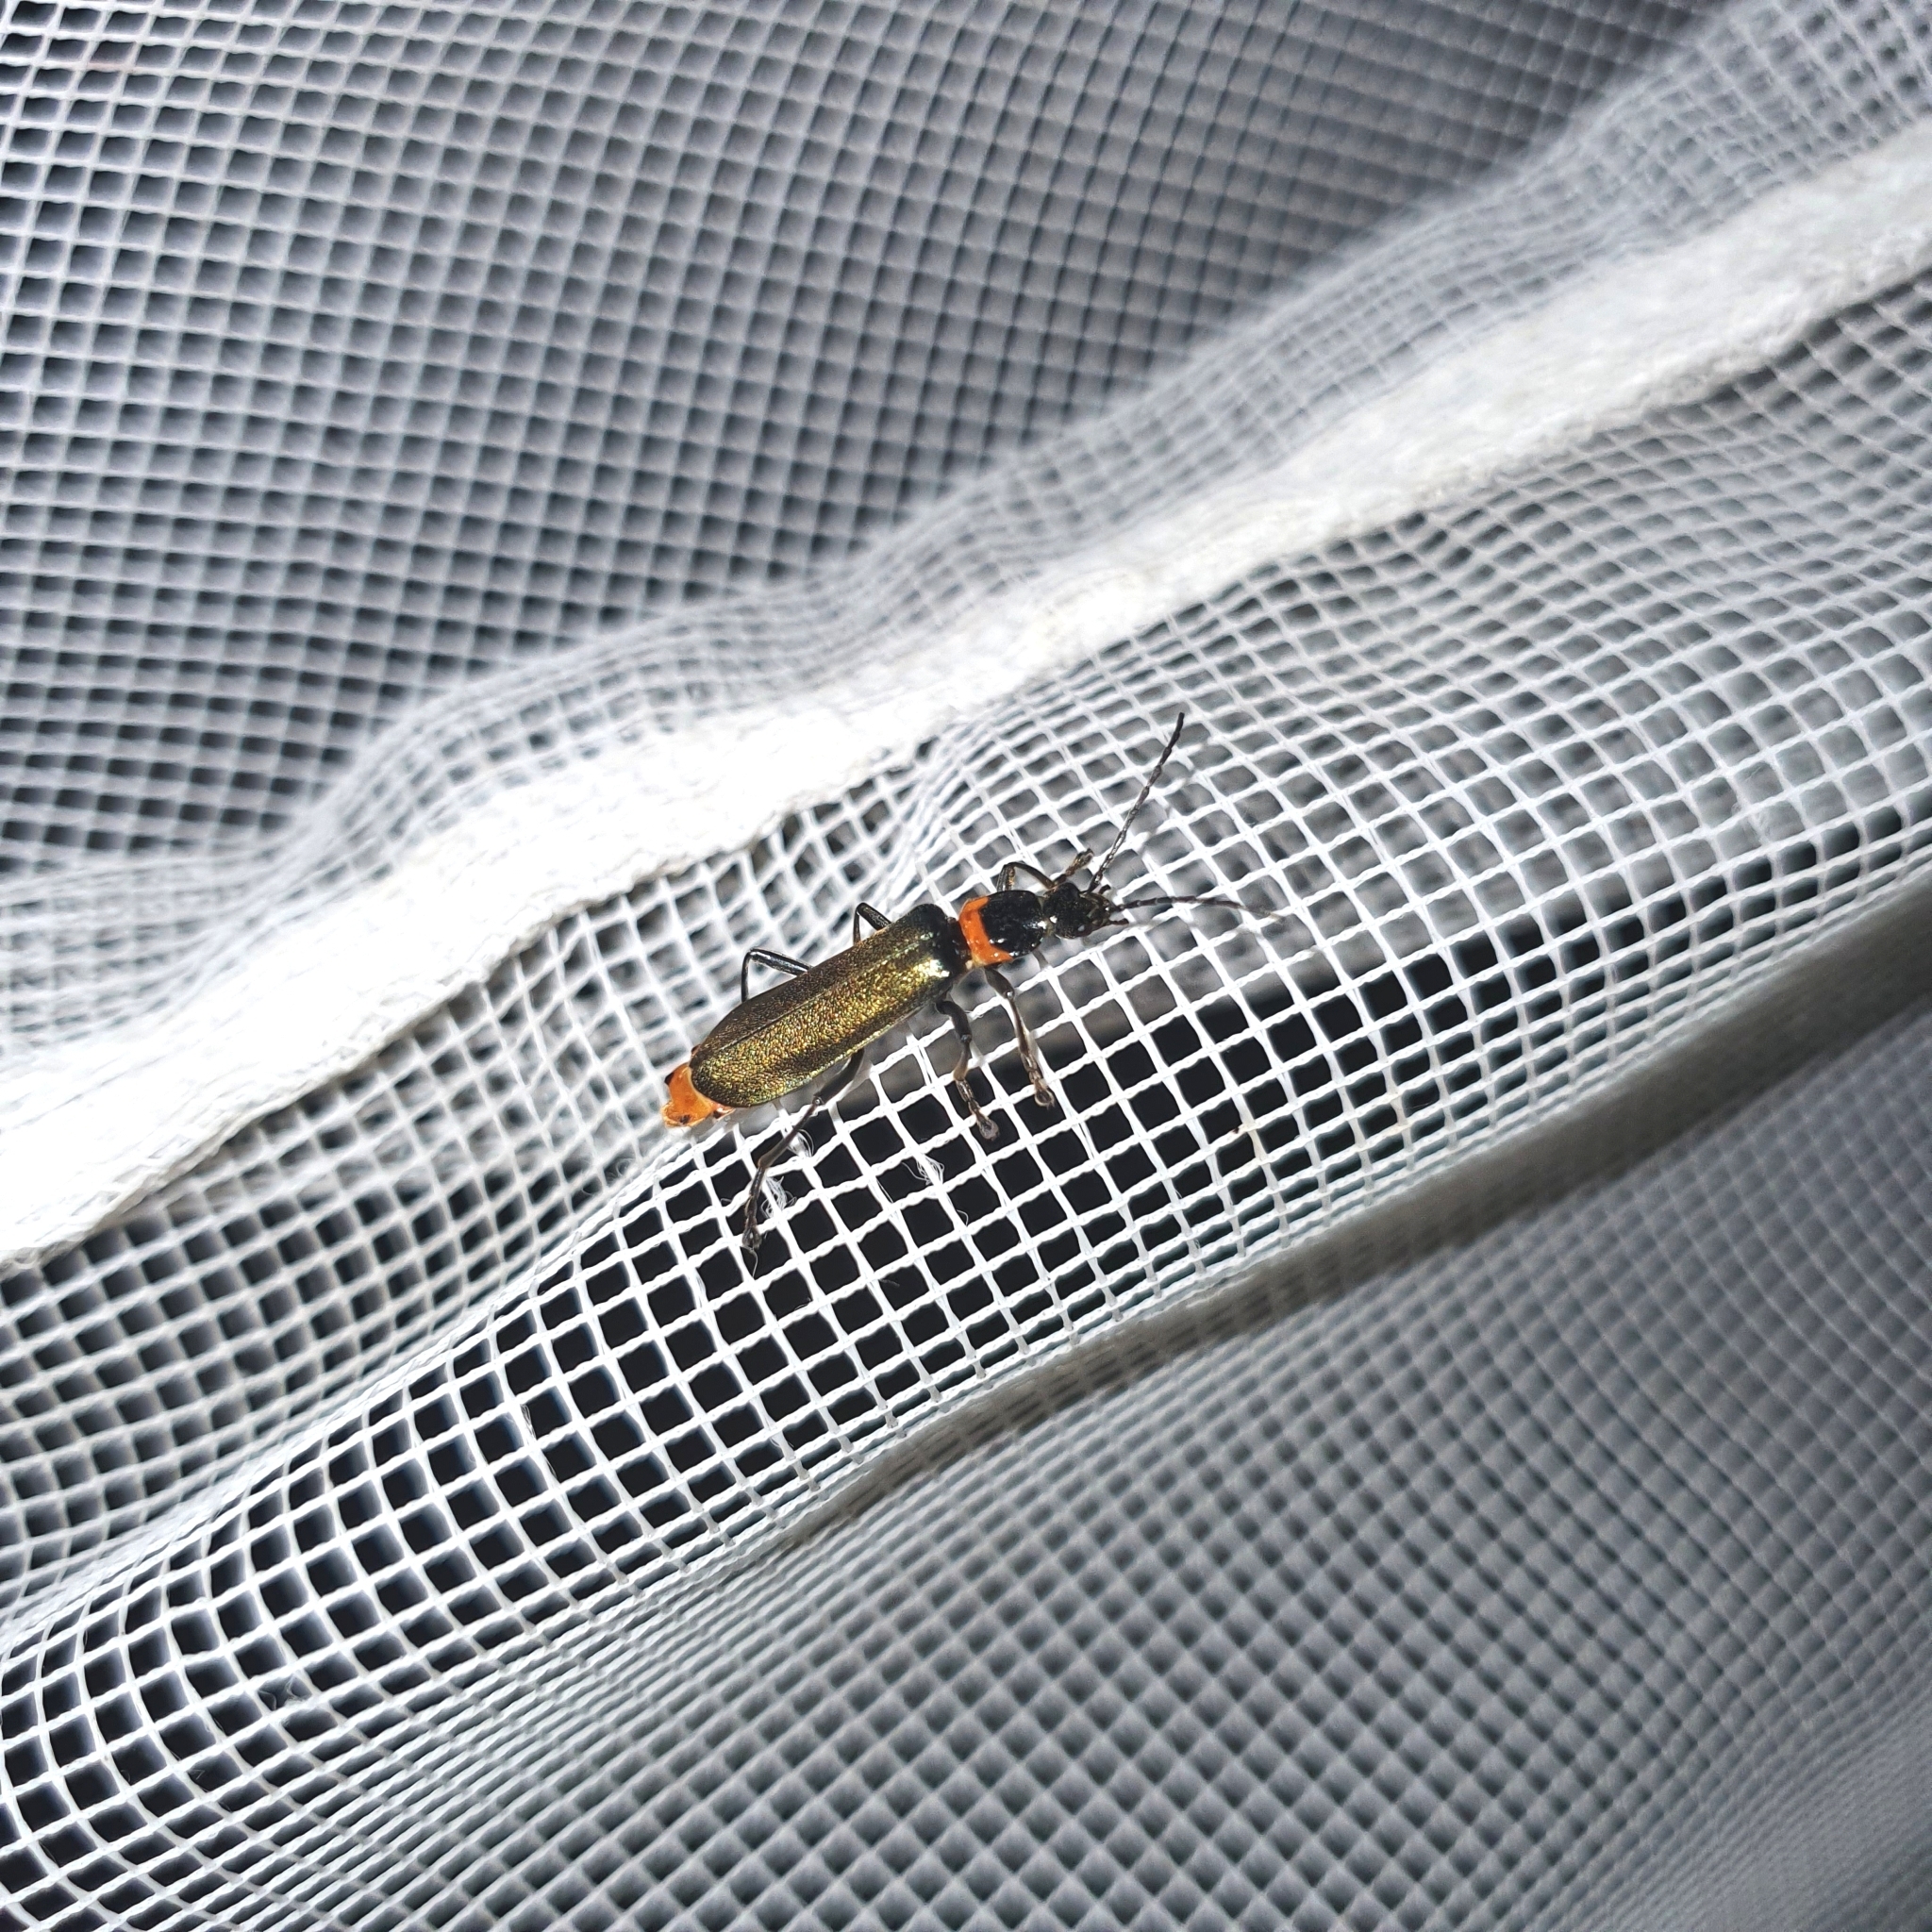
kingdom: Animalia
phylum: Arthropoda
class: Insecta
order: Coleoptera
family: Cantharidae
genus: Chauliognathus
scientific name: Chauliognathus
